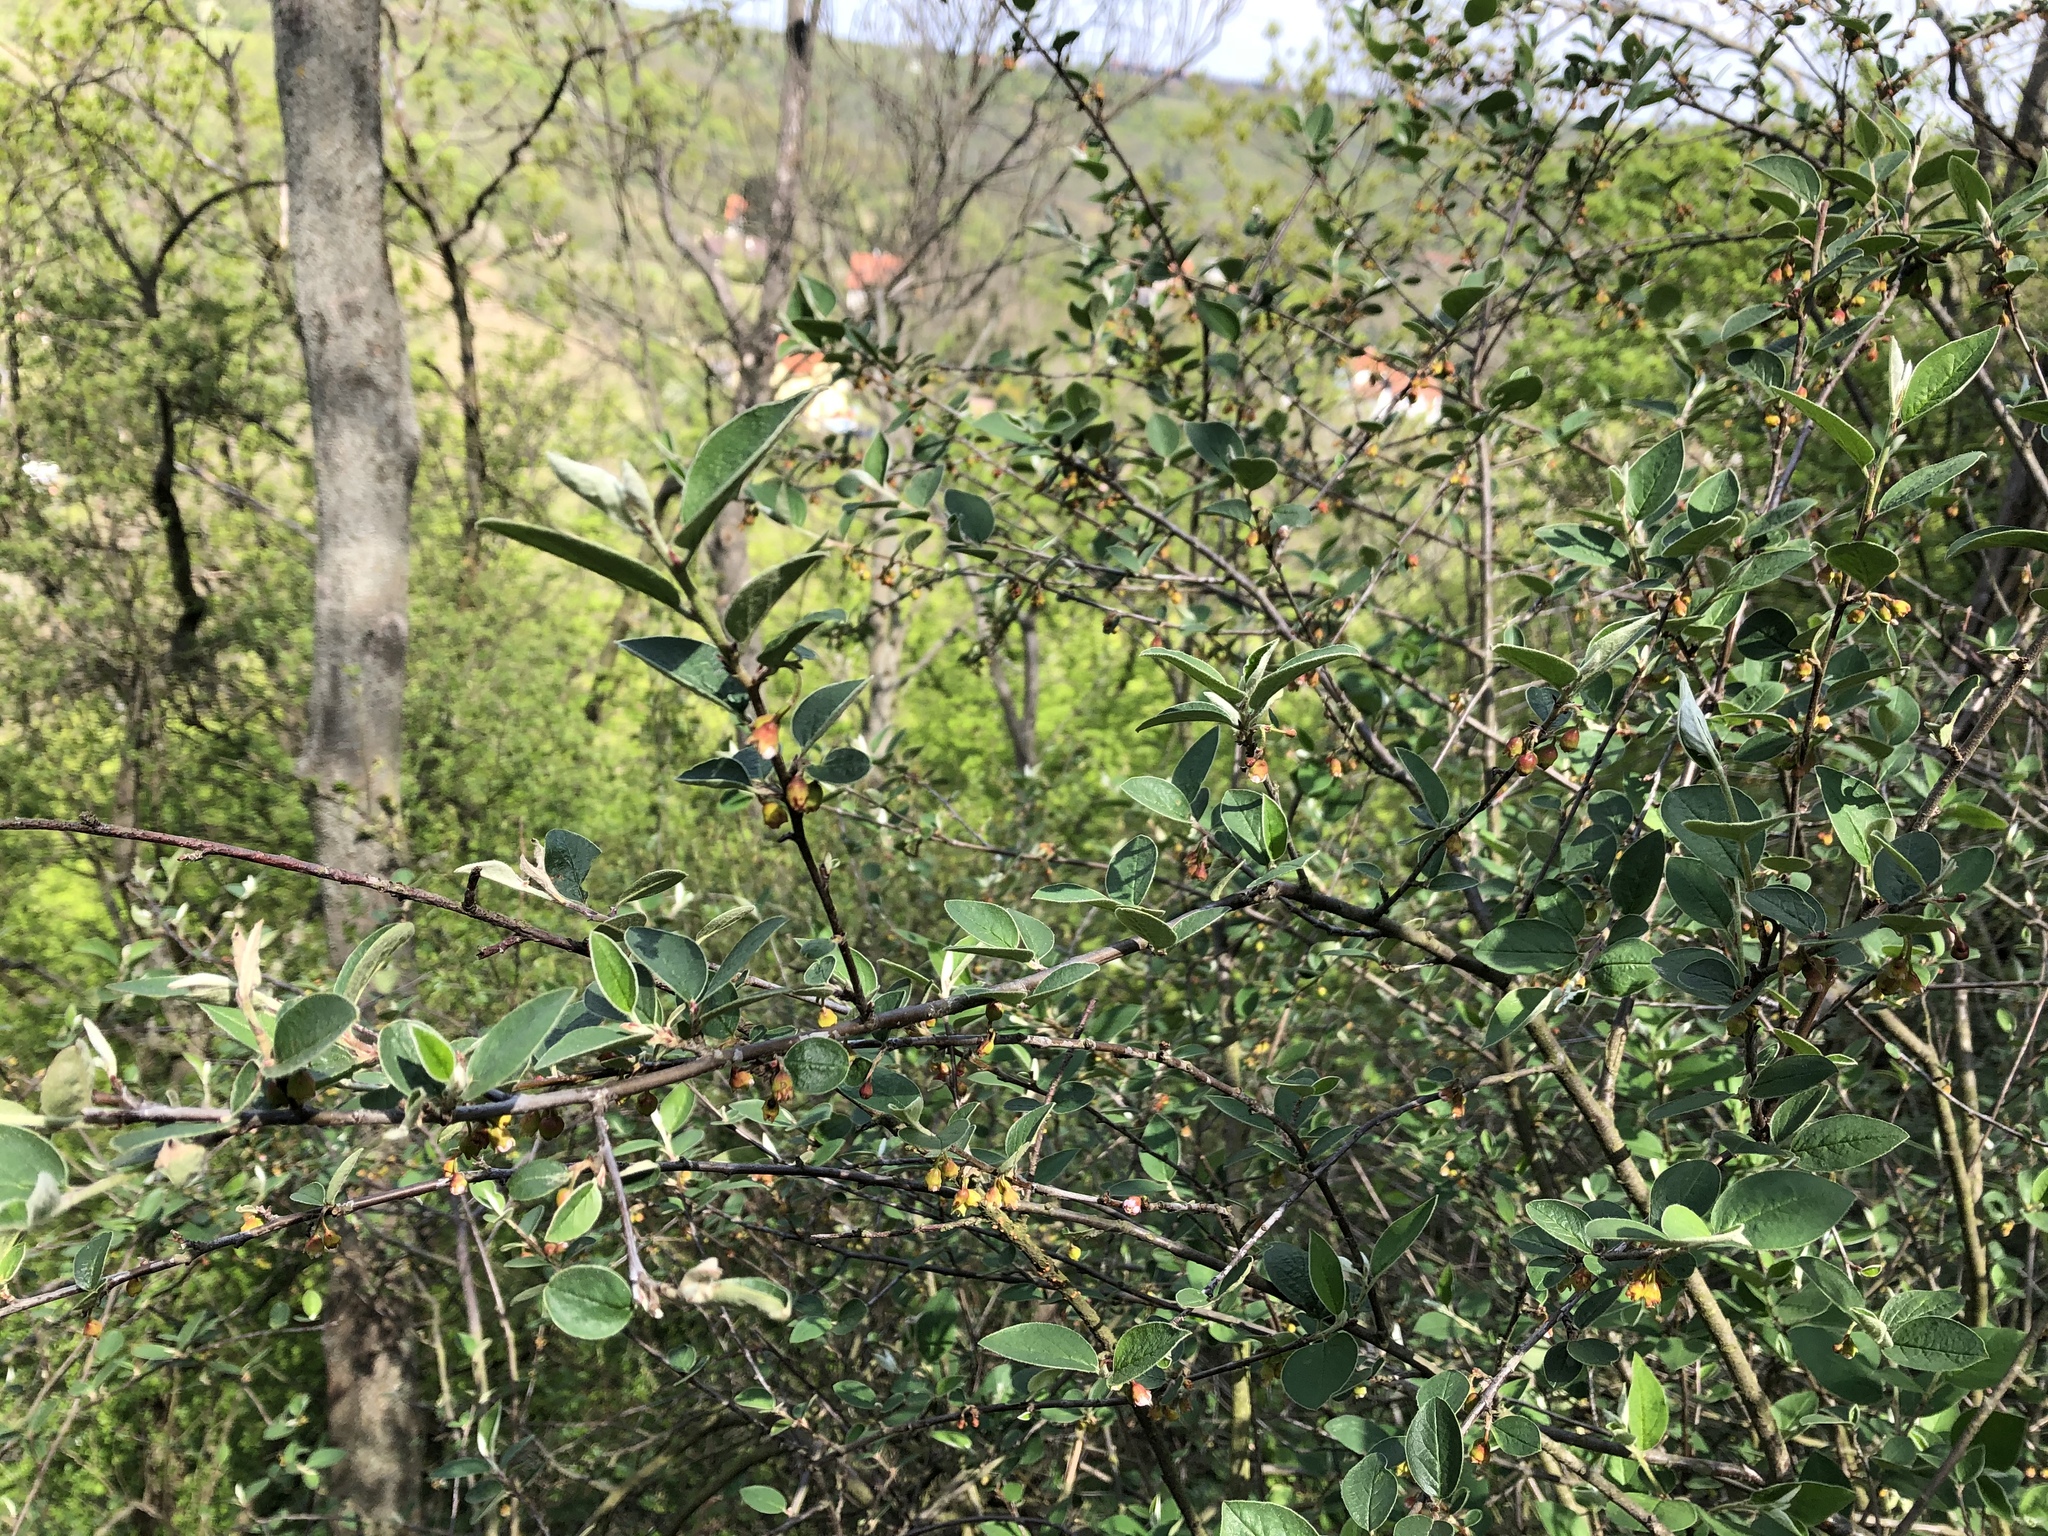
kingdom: Plantae
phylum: Tracheophyta
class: Magnoliopsida
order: Rosales
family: Rosaceae
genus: Cotoneaster
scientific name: Cotoneaster integerrimus
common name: Wild cotoneaster
